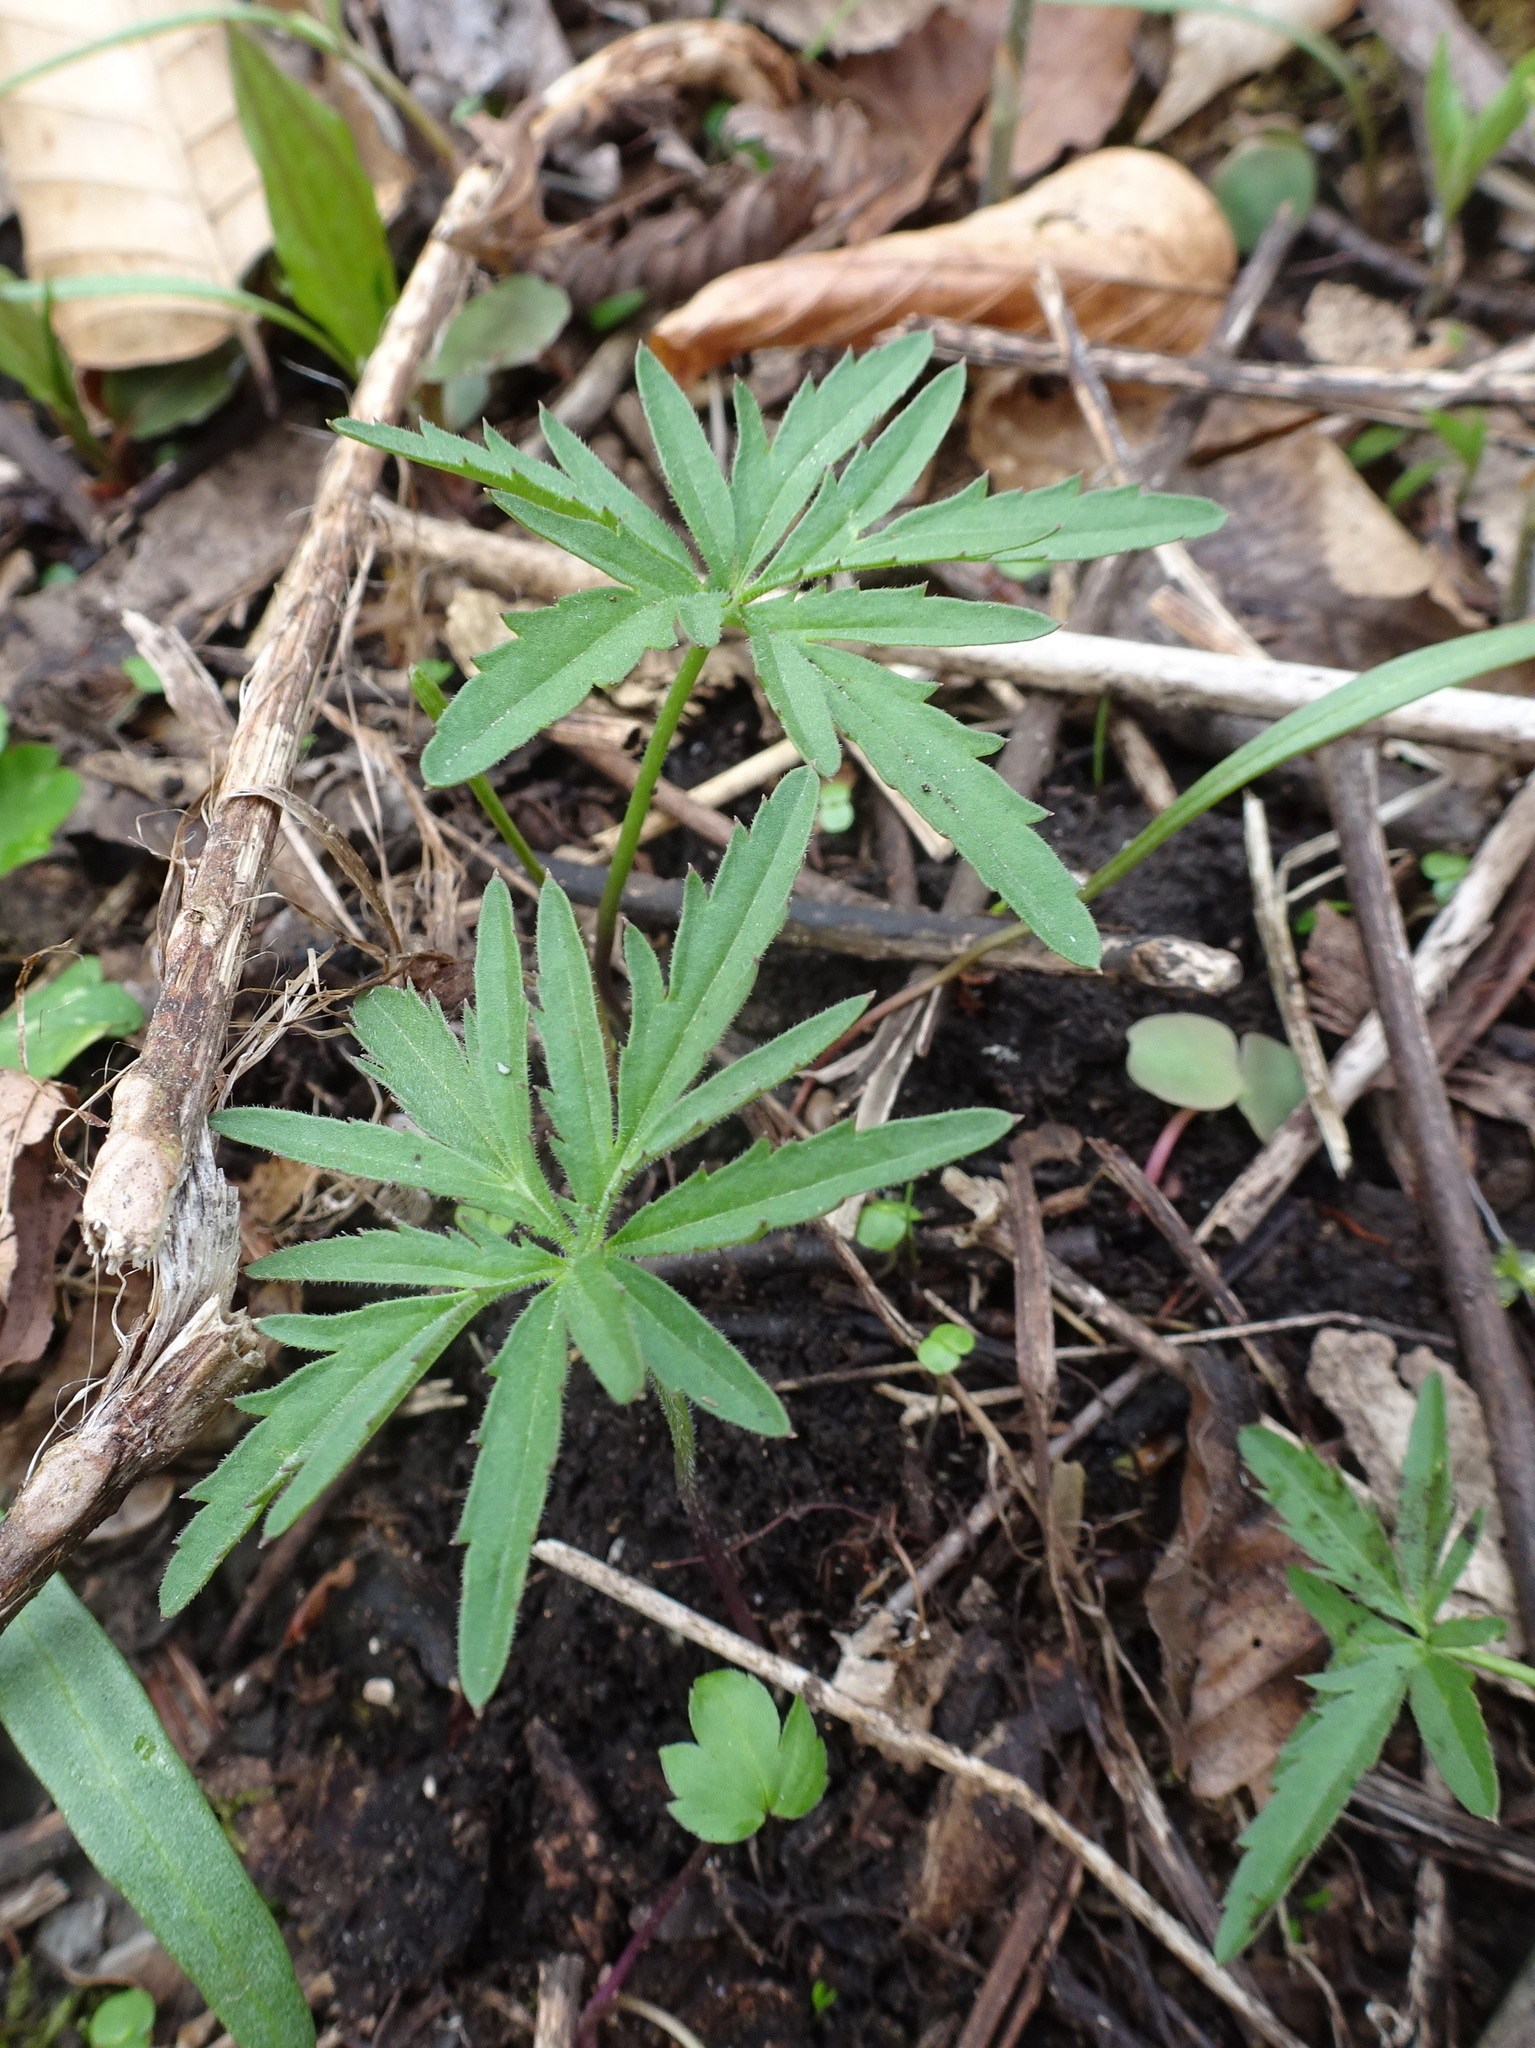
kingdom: Plantae
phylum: Tracheophyta
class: Magnoliopsida
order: Brassicales
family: Brassicaceae
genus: Cardamine
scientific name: Cardamine concatenata
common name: Cut-leaf toothcup
